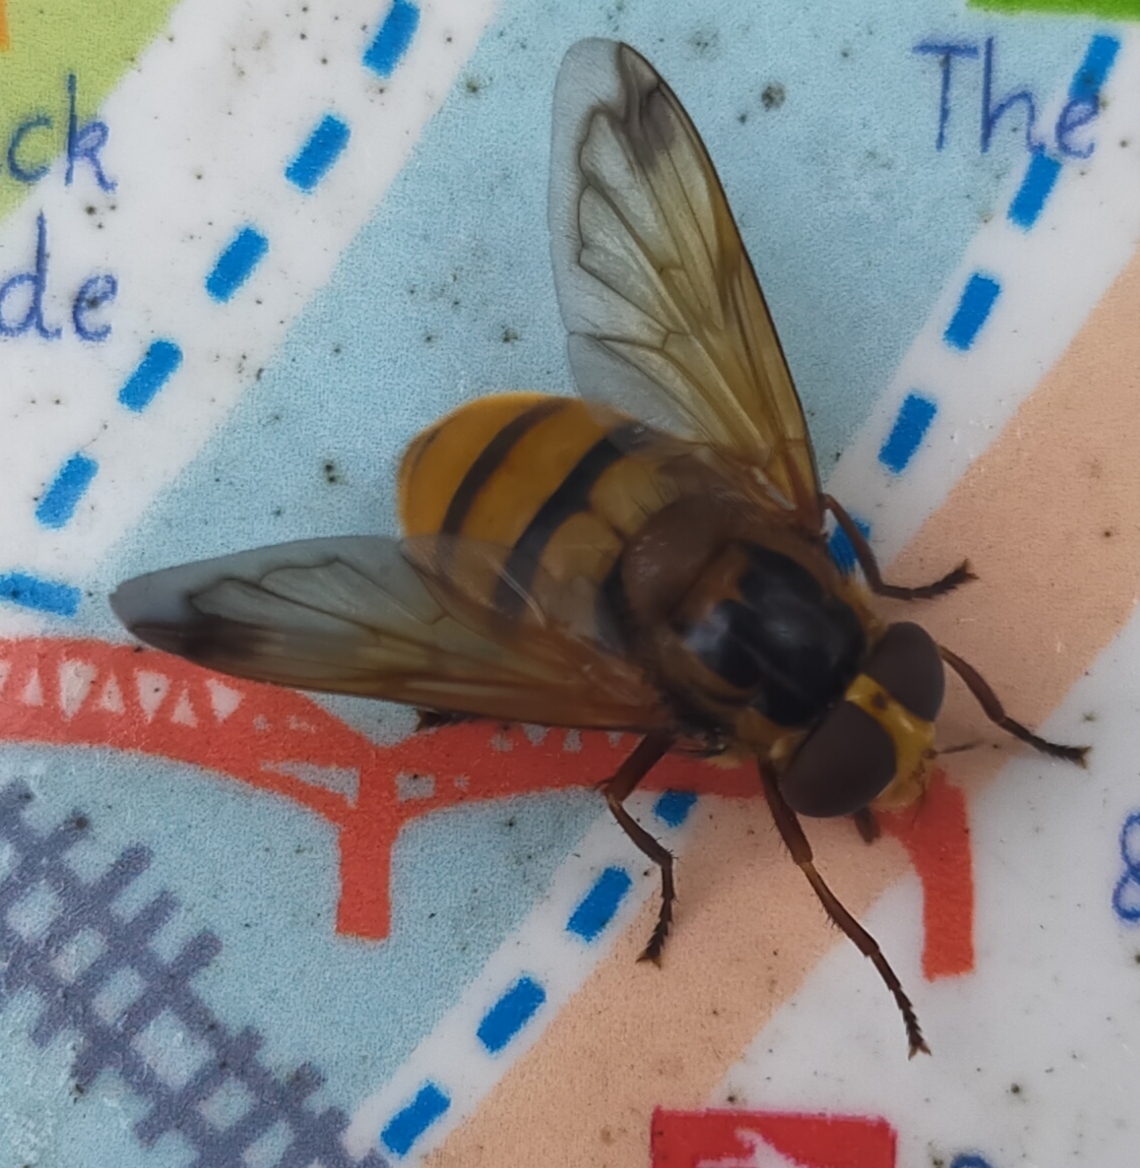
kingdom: Animalia
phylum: Arthropoda
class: Insecta
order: Diptera
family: Syrphidae
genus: Volucella
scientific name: Volucella inanis
